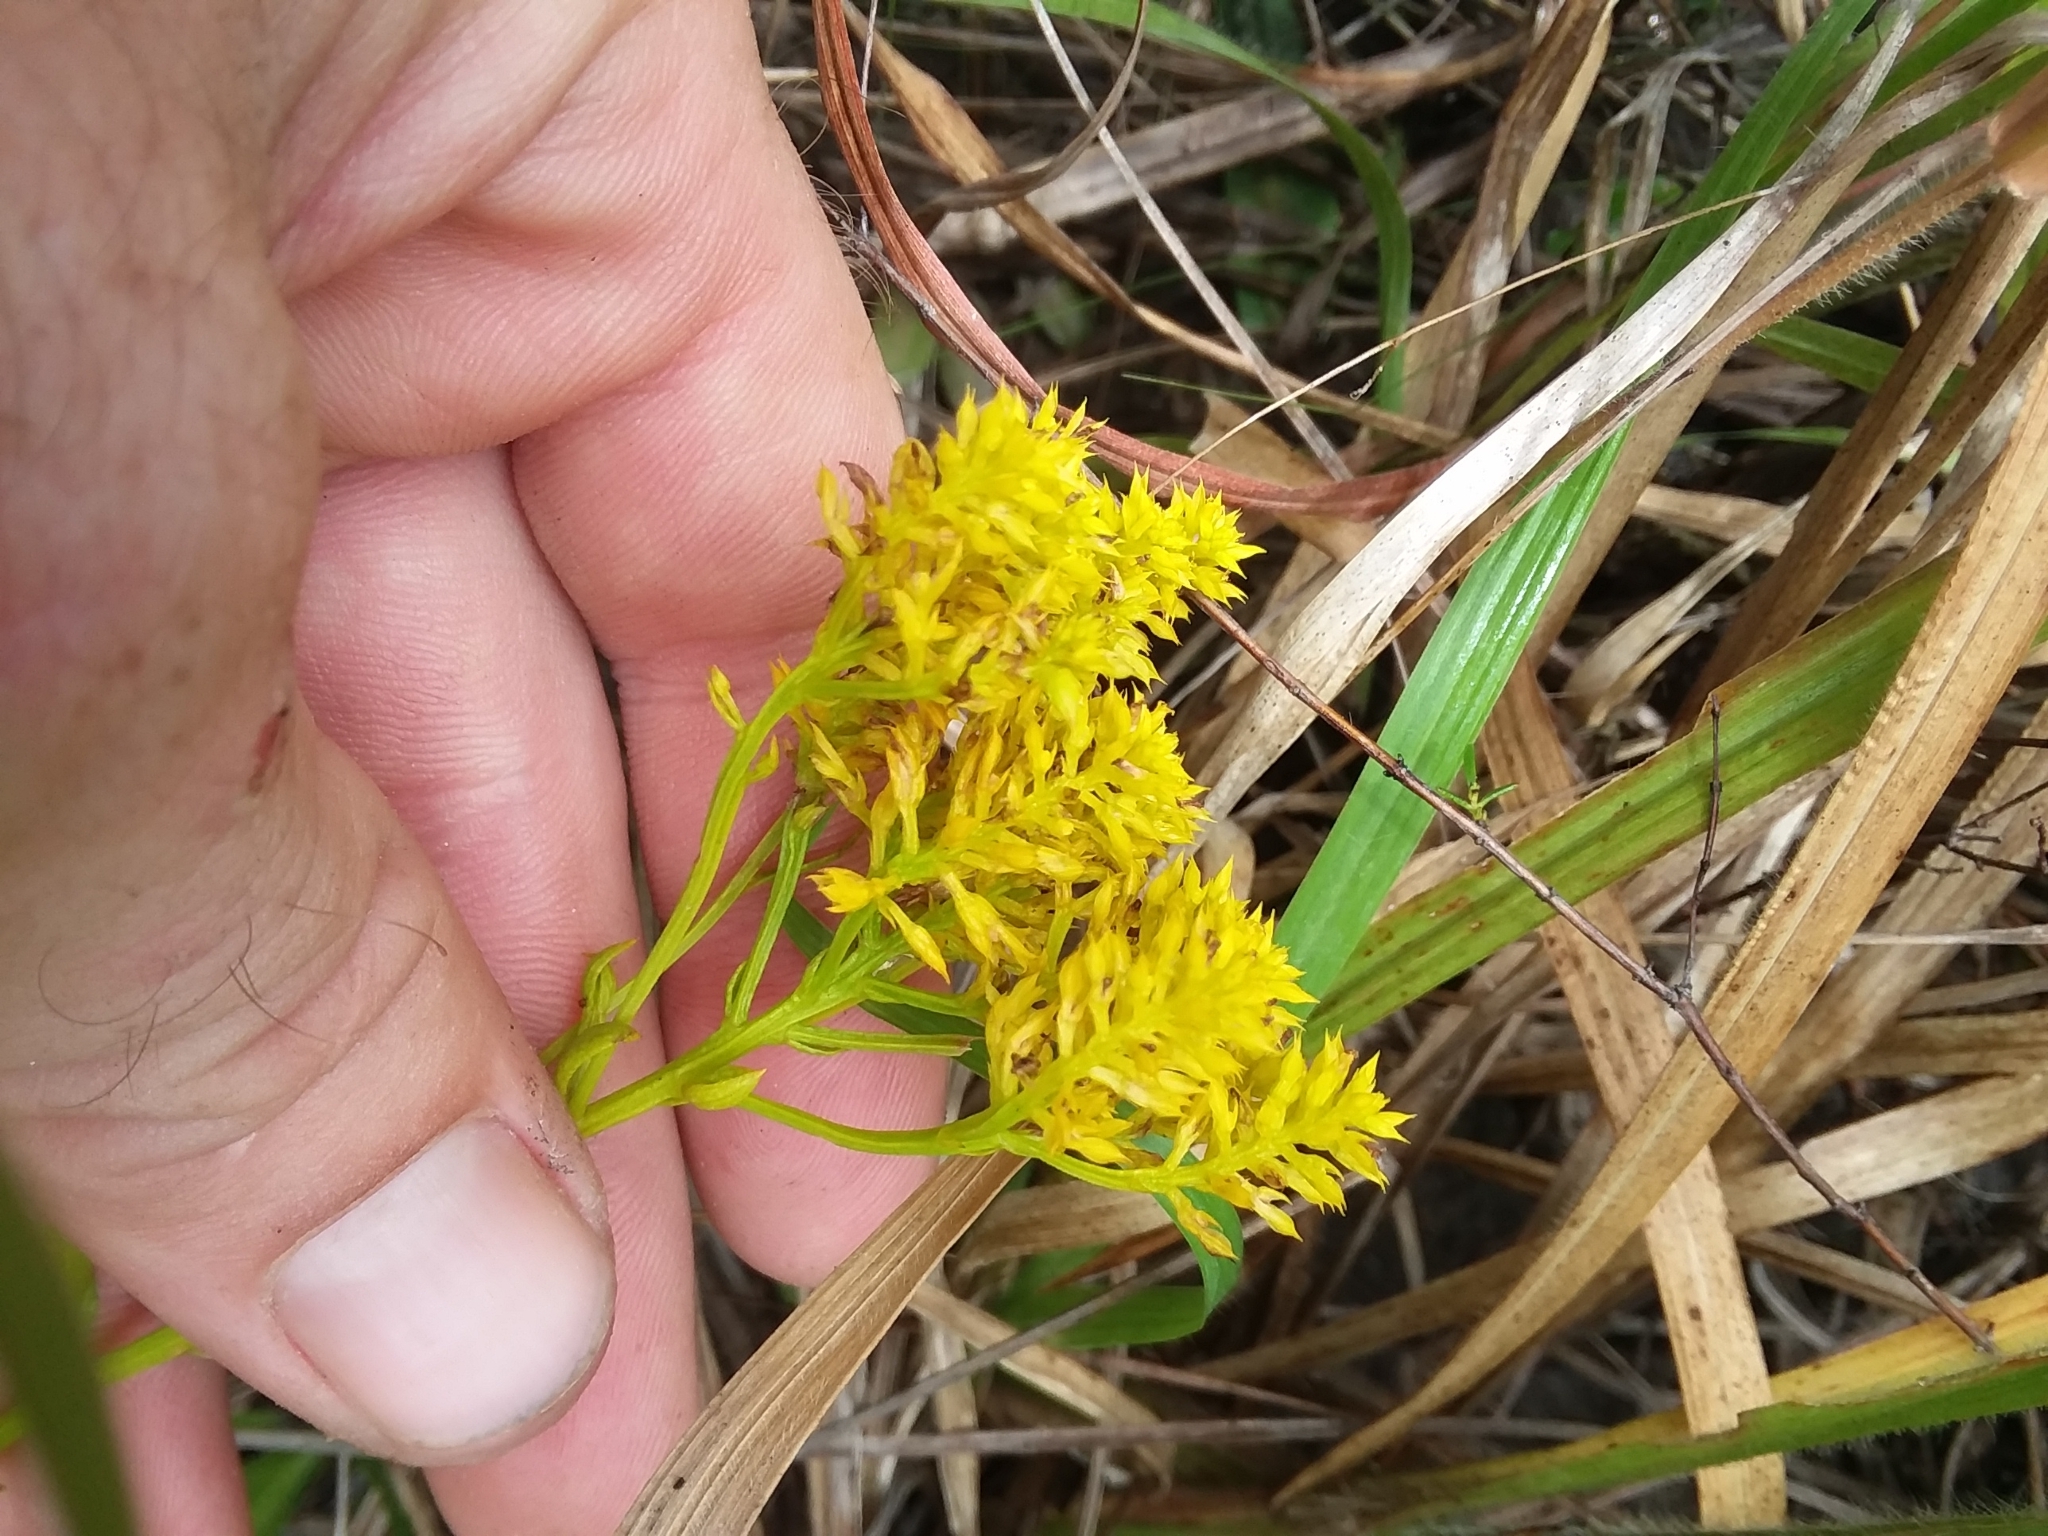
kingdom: Plantae
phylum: Tracheophyta
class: Magnoliopsida
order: Fabales
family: Polygalaceae
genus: Polygala
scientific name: Polygala ramosa
